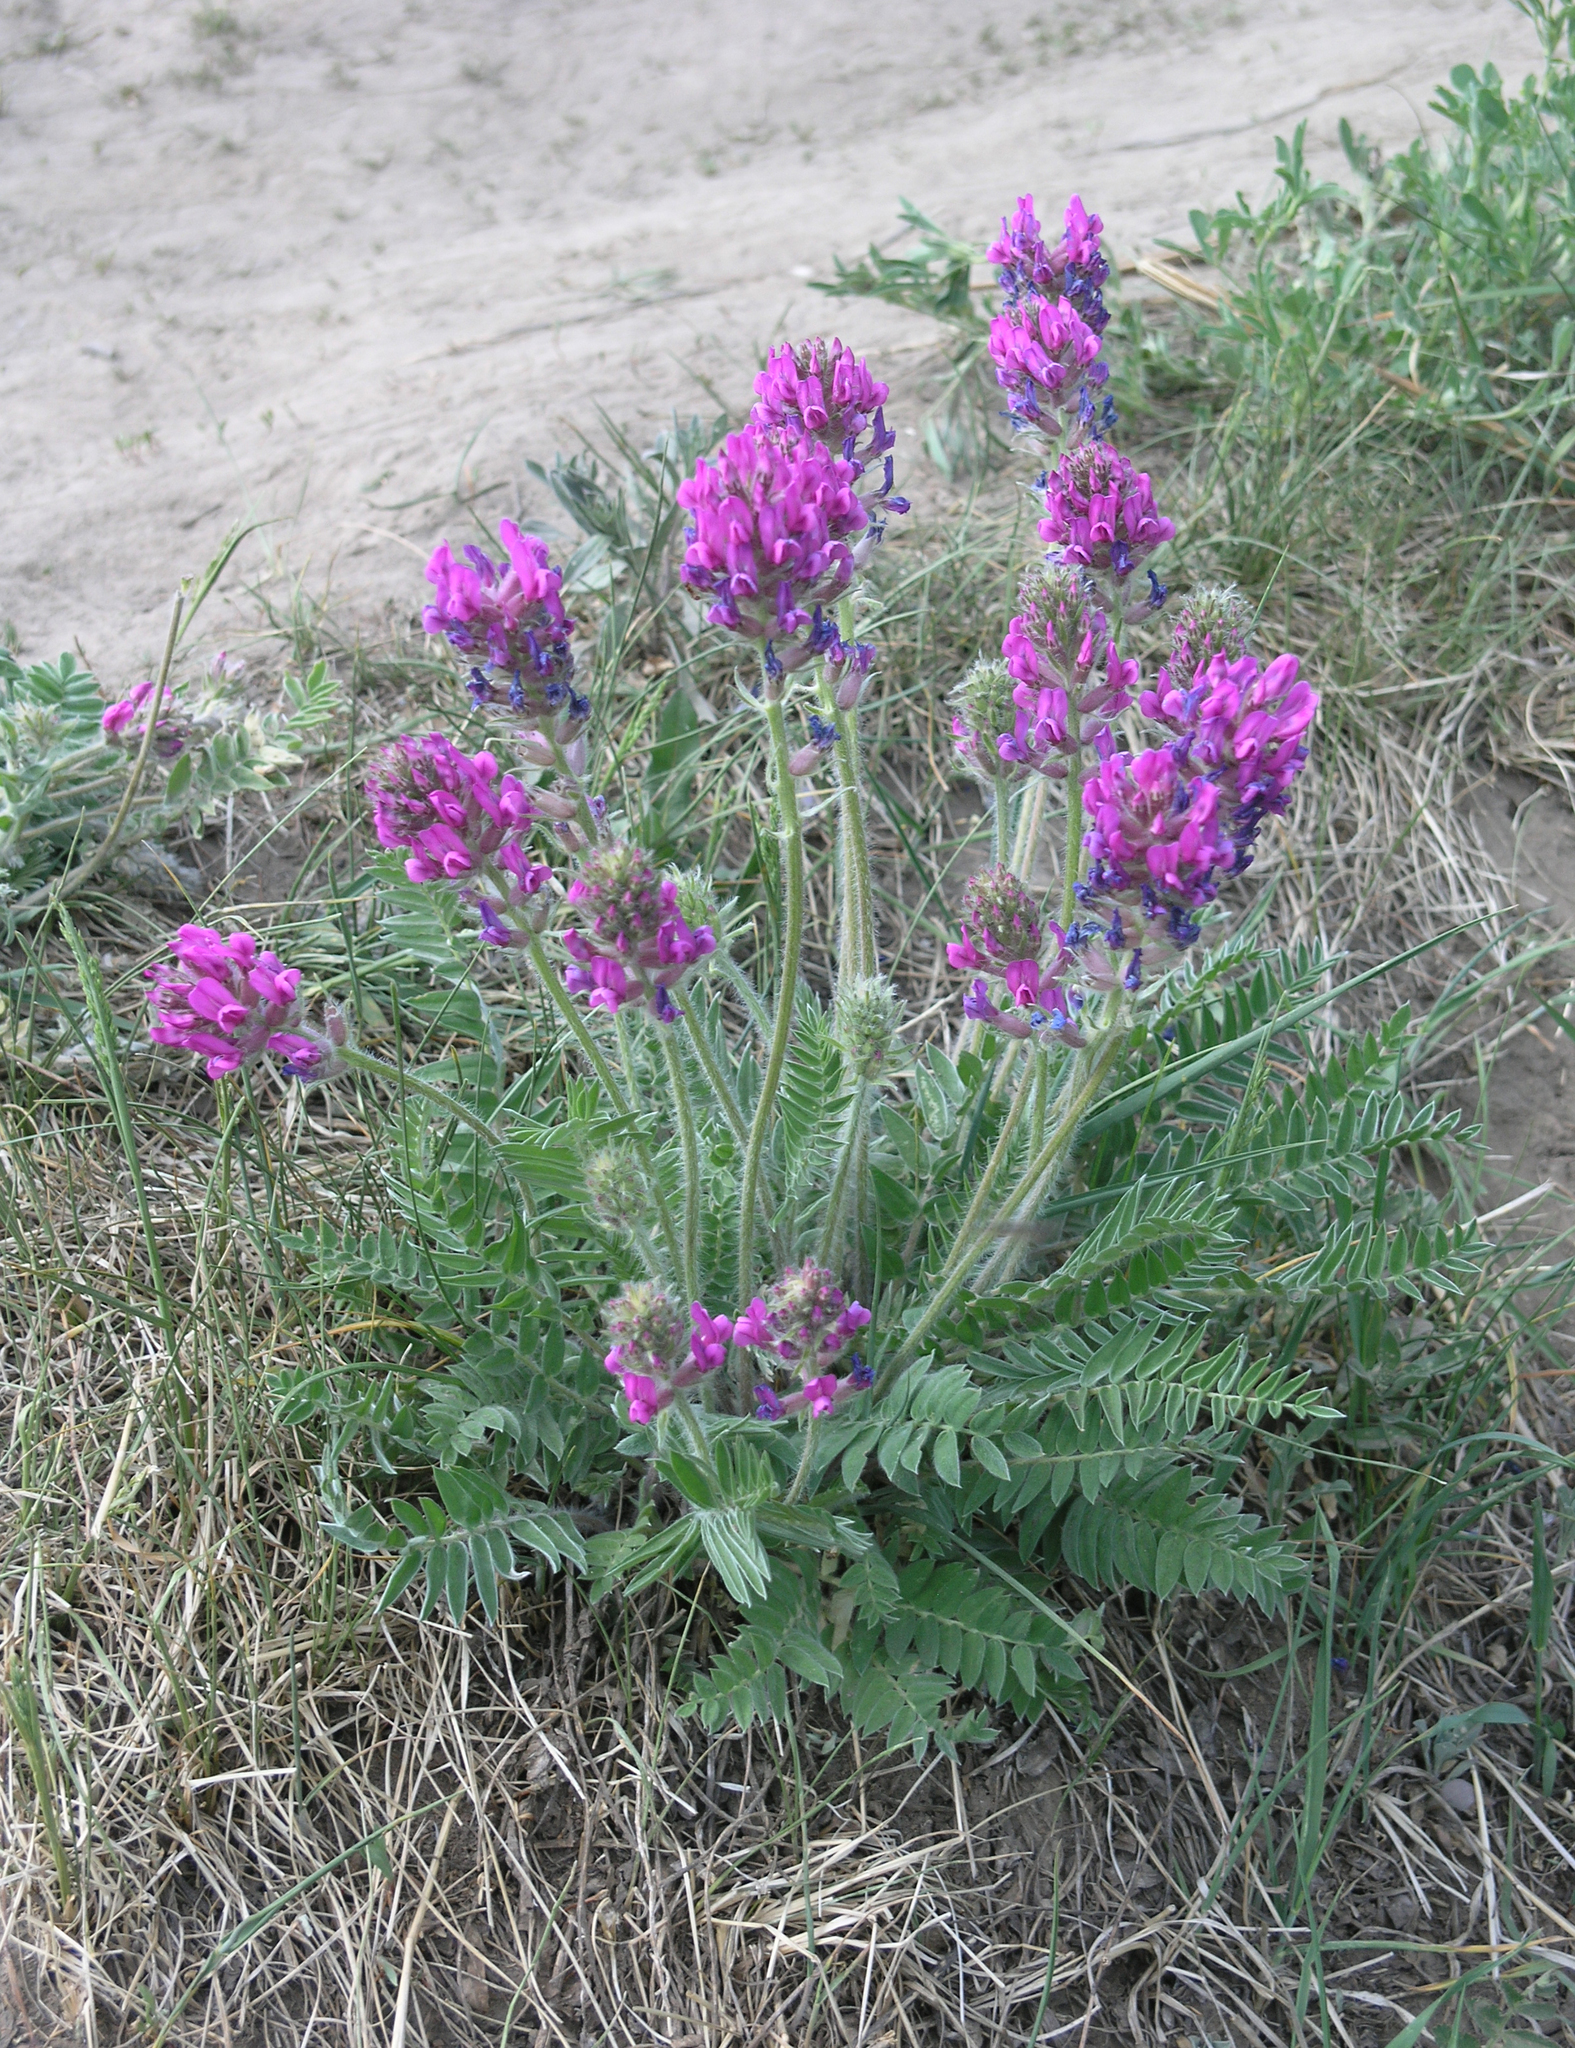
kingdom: Plantae
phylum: Tracheophyta
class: Magnoliopsida
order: Fabales
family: Fabaceae
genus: Oxytropis
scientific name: Oxytropis campanulata
